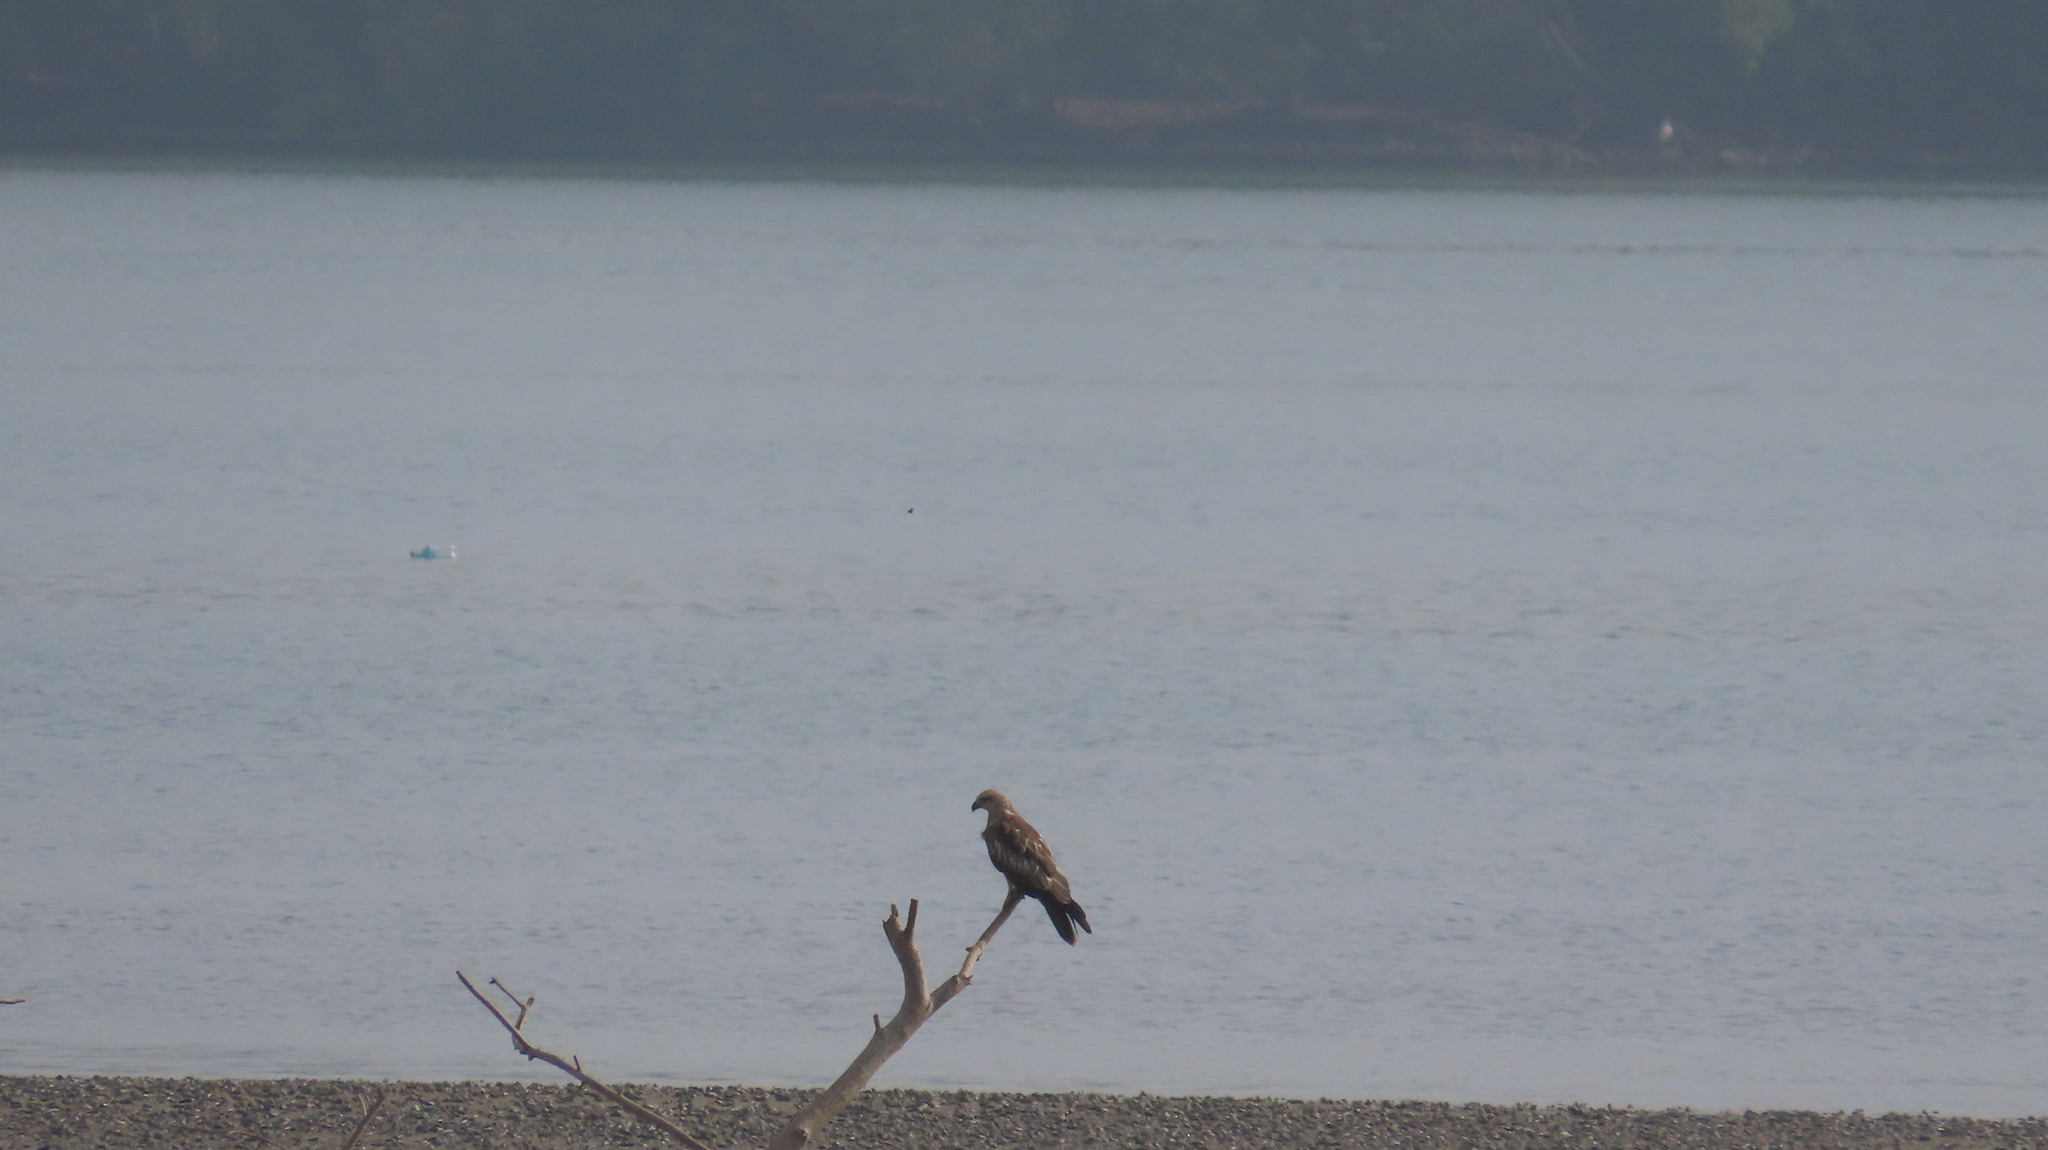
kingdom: Animalia
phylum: Chordata
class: Aves
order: Accipitriformes
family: Accipitridae
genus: Haliastur
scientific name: Haliastur indus
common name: Brahminy kite
